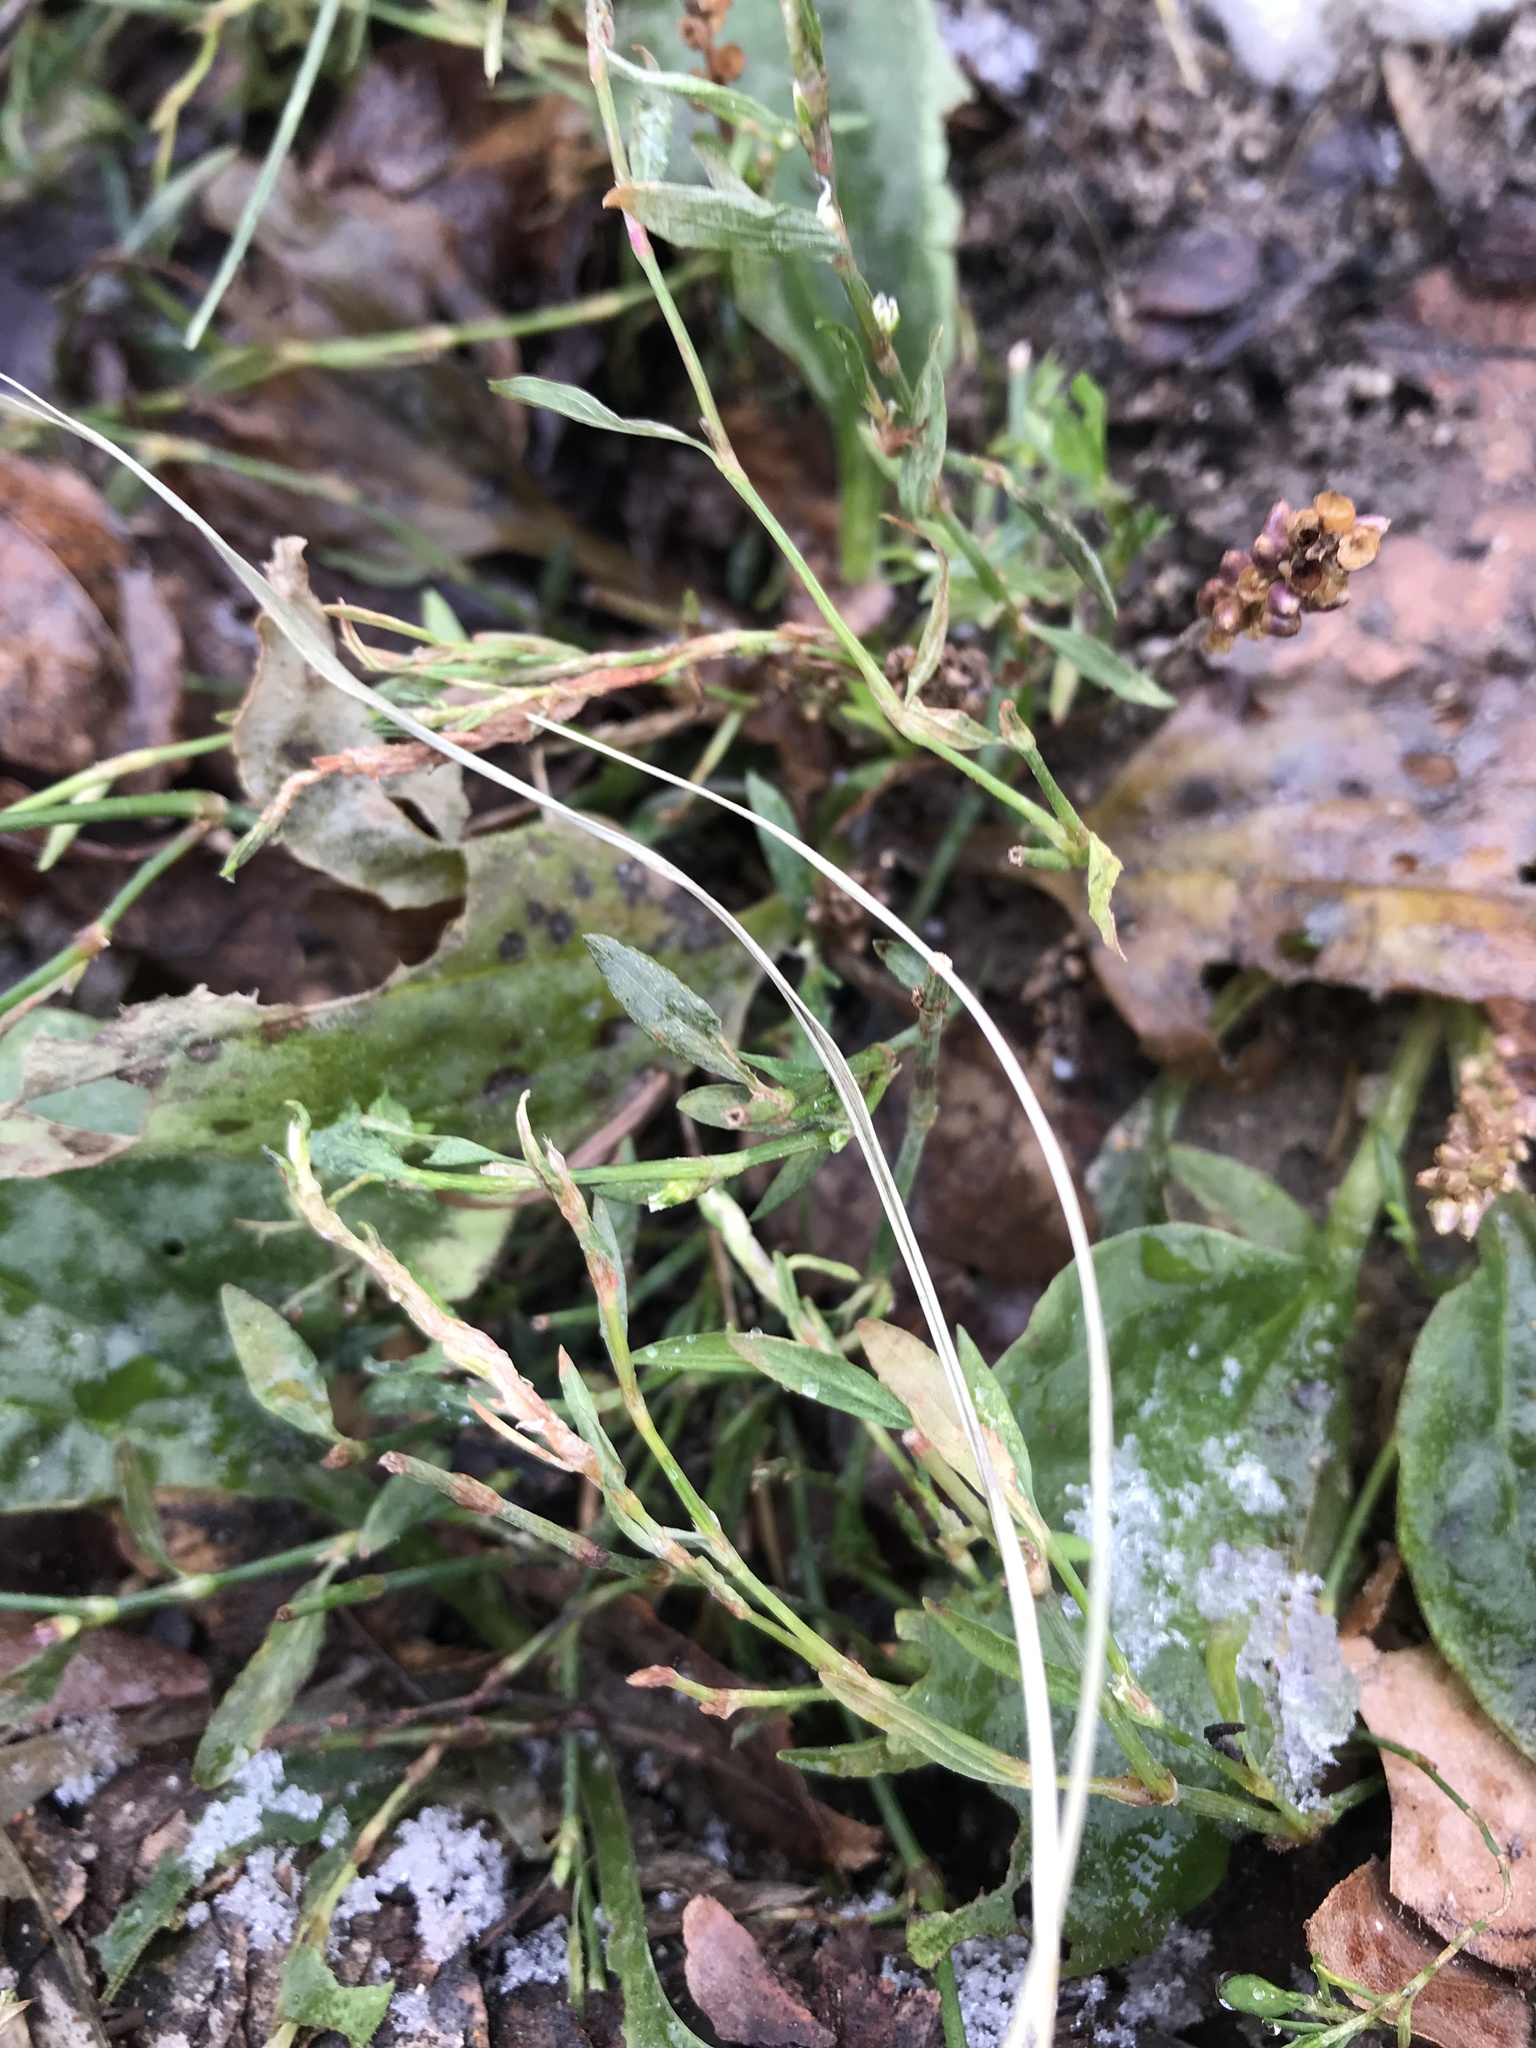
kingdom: Plantae
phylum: Tracheophyta
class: Magnoliopsida
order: Lamiales
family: Plantaginaceae
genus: Plantago
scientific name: Plantago
